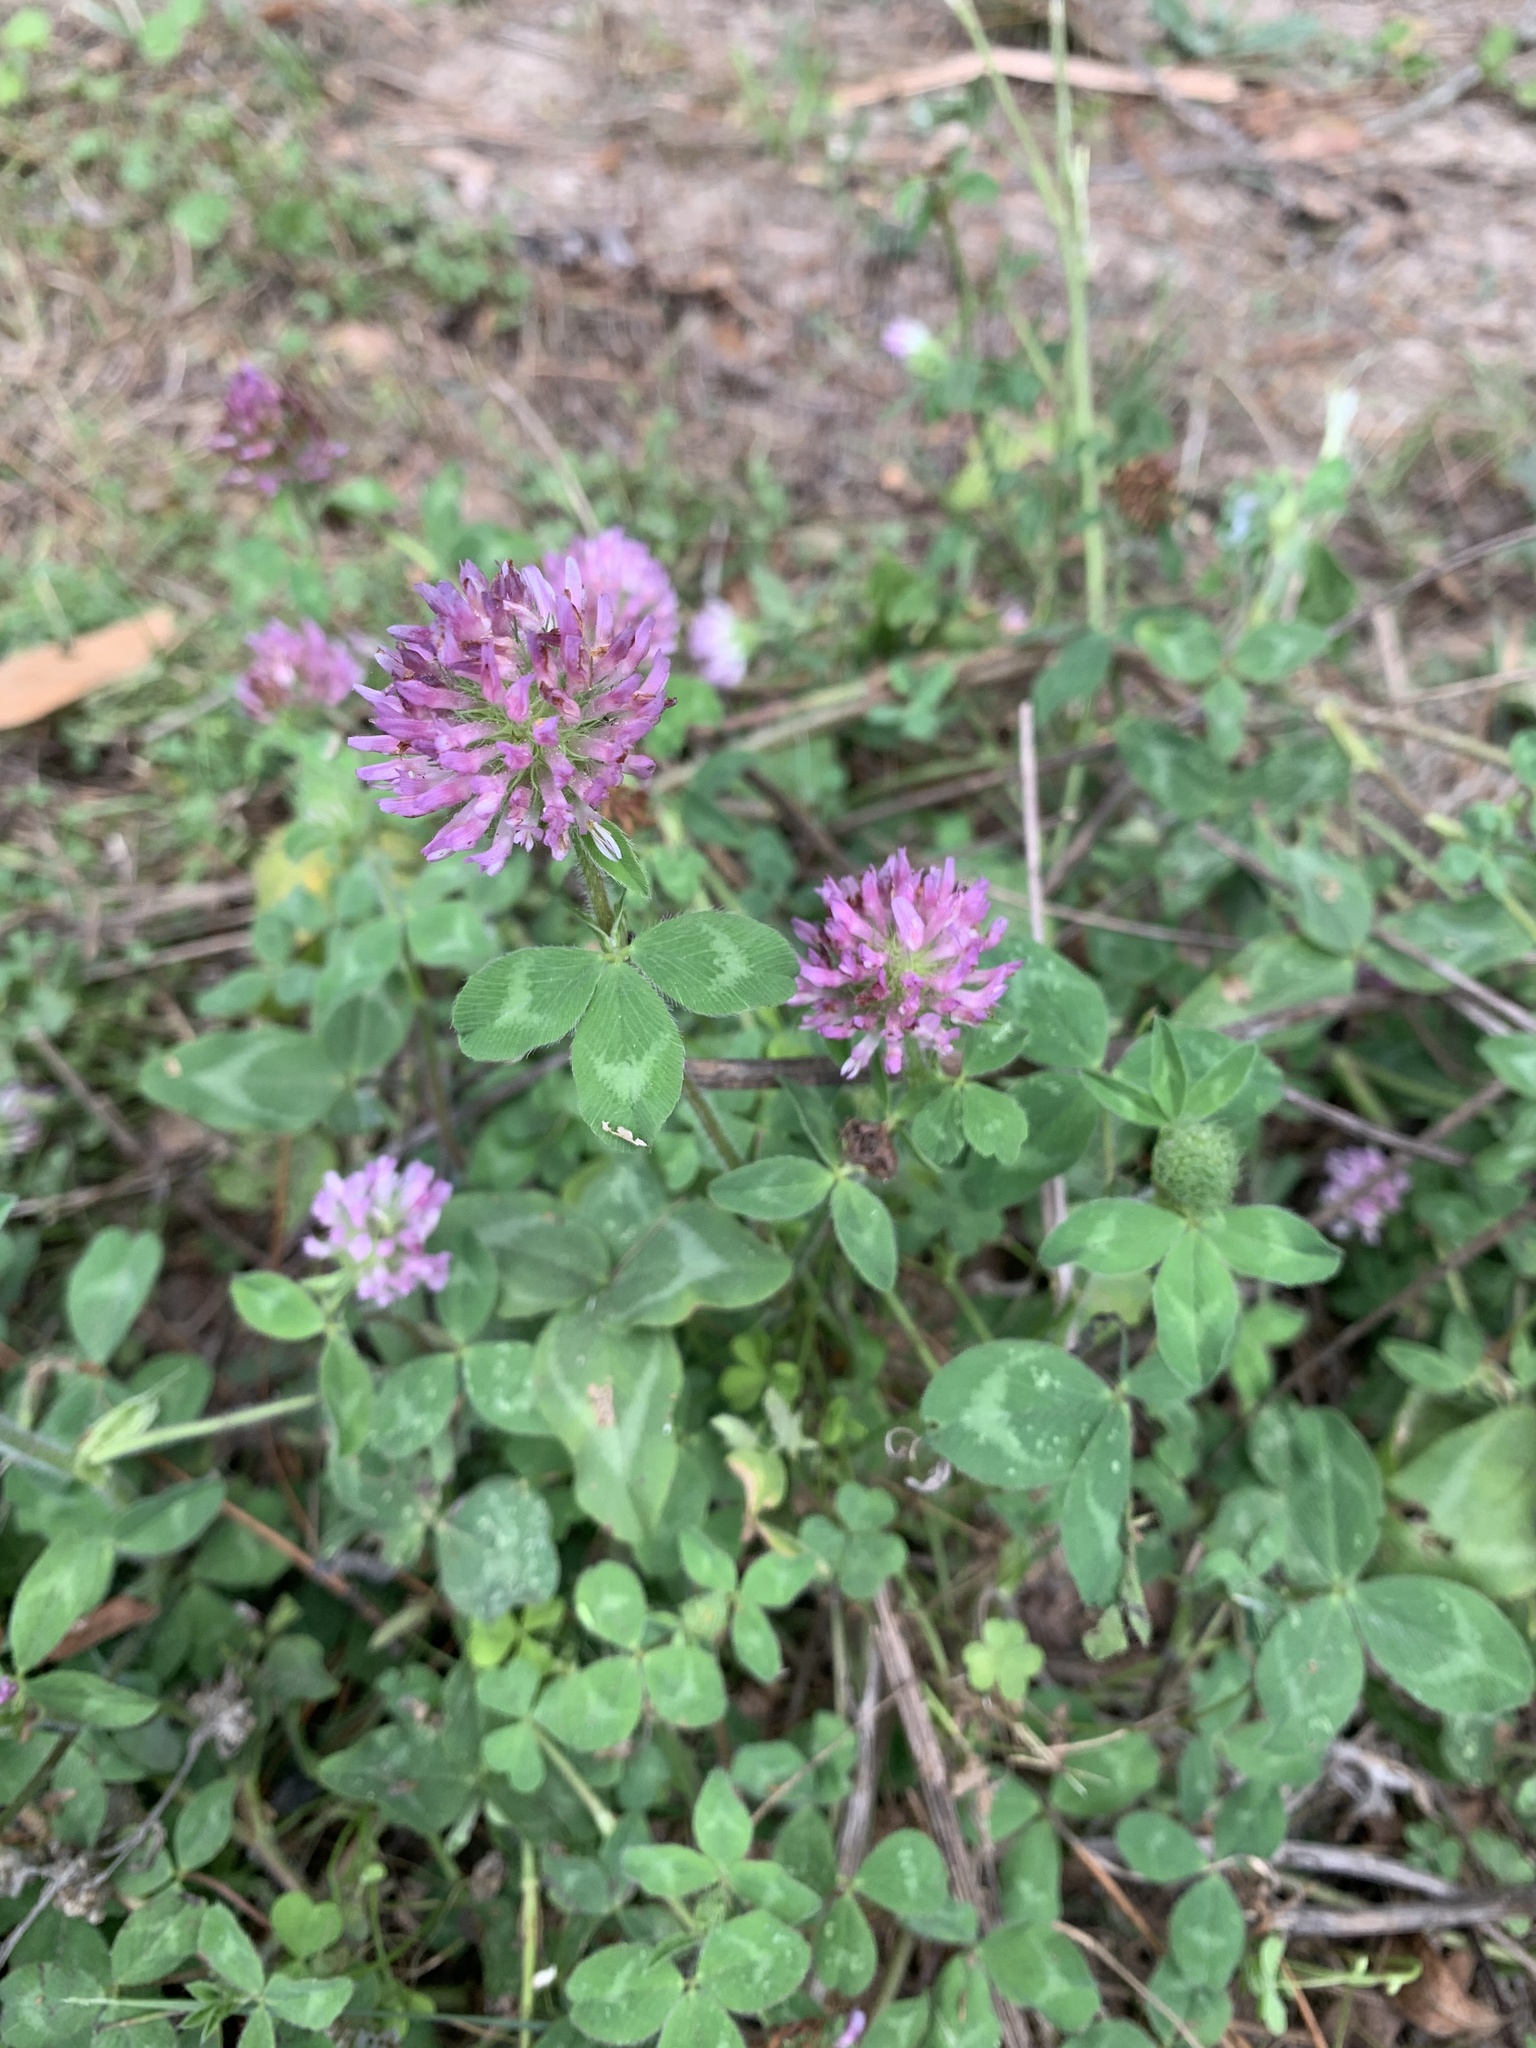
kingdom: Plantae
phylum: Tracheophyta
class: Magnoliopsida
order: Fabales
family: Fabaceae
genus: Trifolium
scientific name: Trifolium pratense
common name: Red clover
